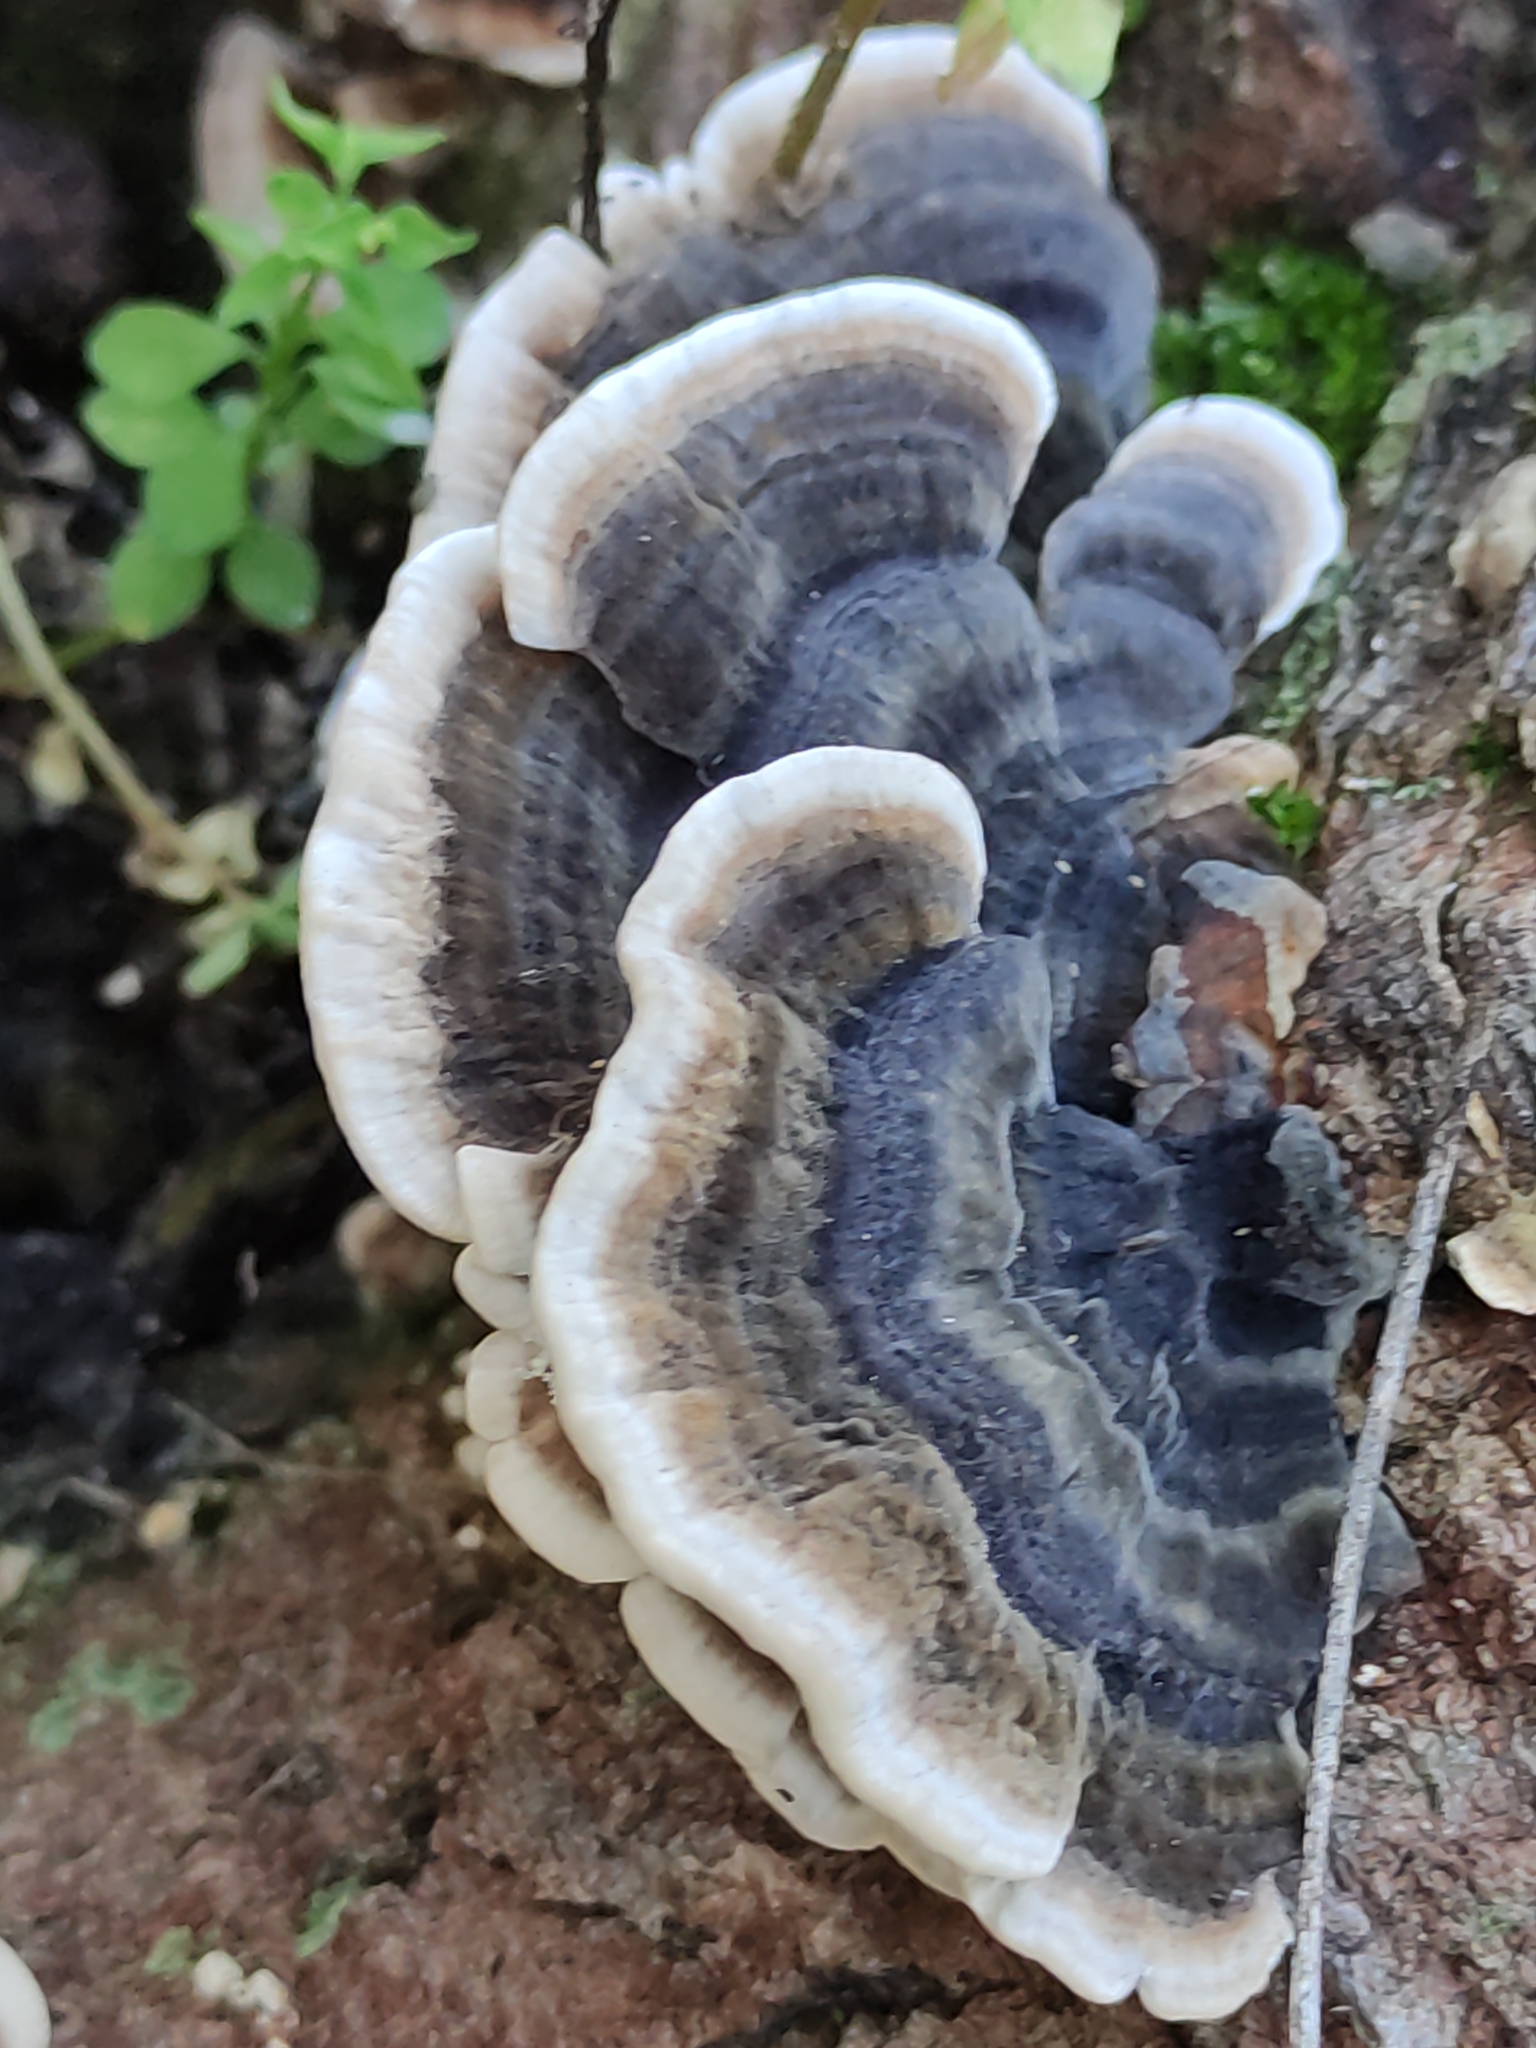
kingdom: Fungi
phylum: Basidiomycota
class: Agaricomycetes
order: Polyporales
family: Polyporaceae
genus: Trametes
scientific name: Trametes versicolor
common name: Turkeytail
